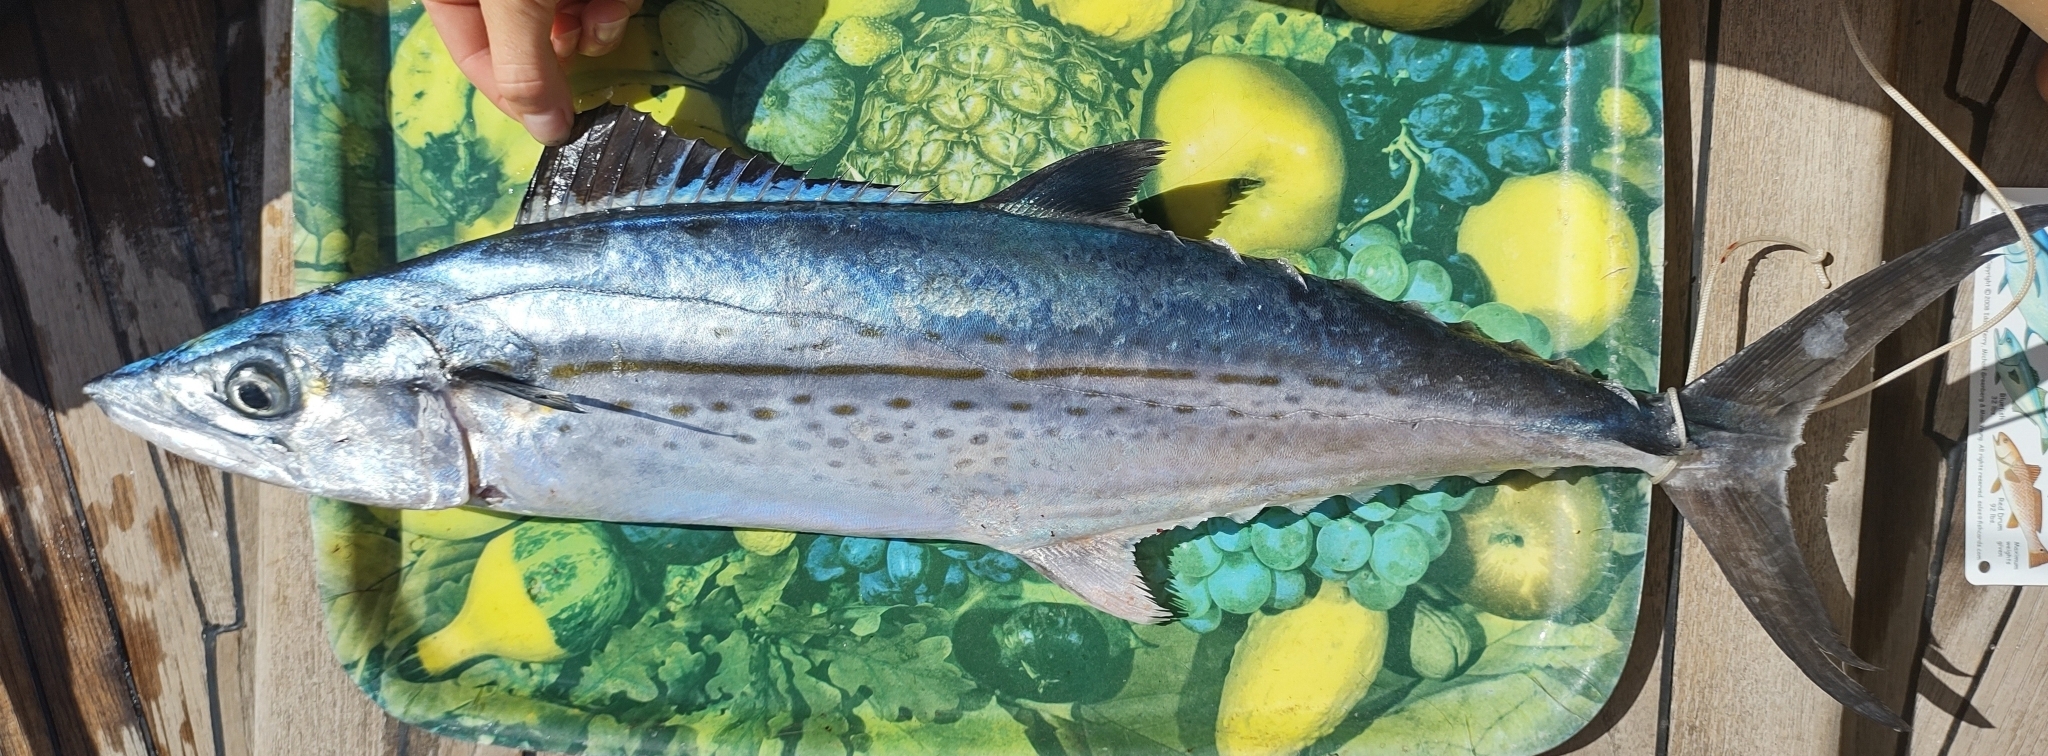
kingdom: Animalia
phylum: Chordata
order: Perciformes
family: Scombridae
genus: Scomberomorus
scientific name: Scomberomorus regalis
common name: Cero
